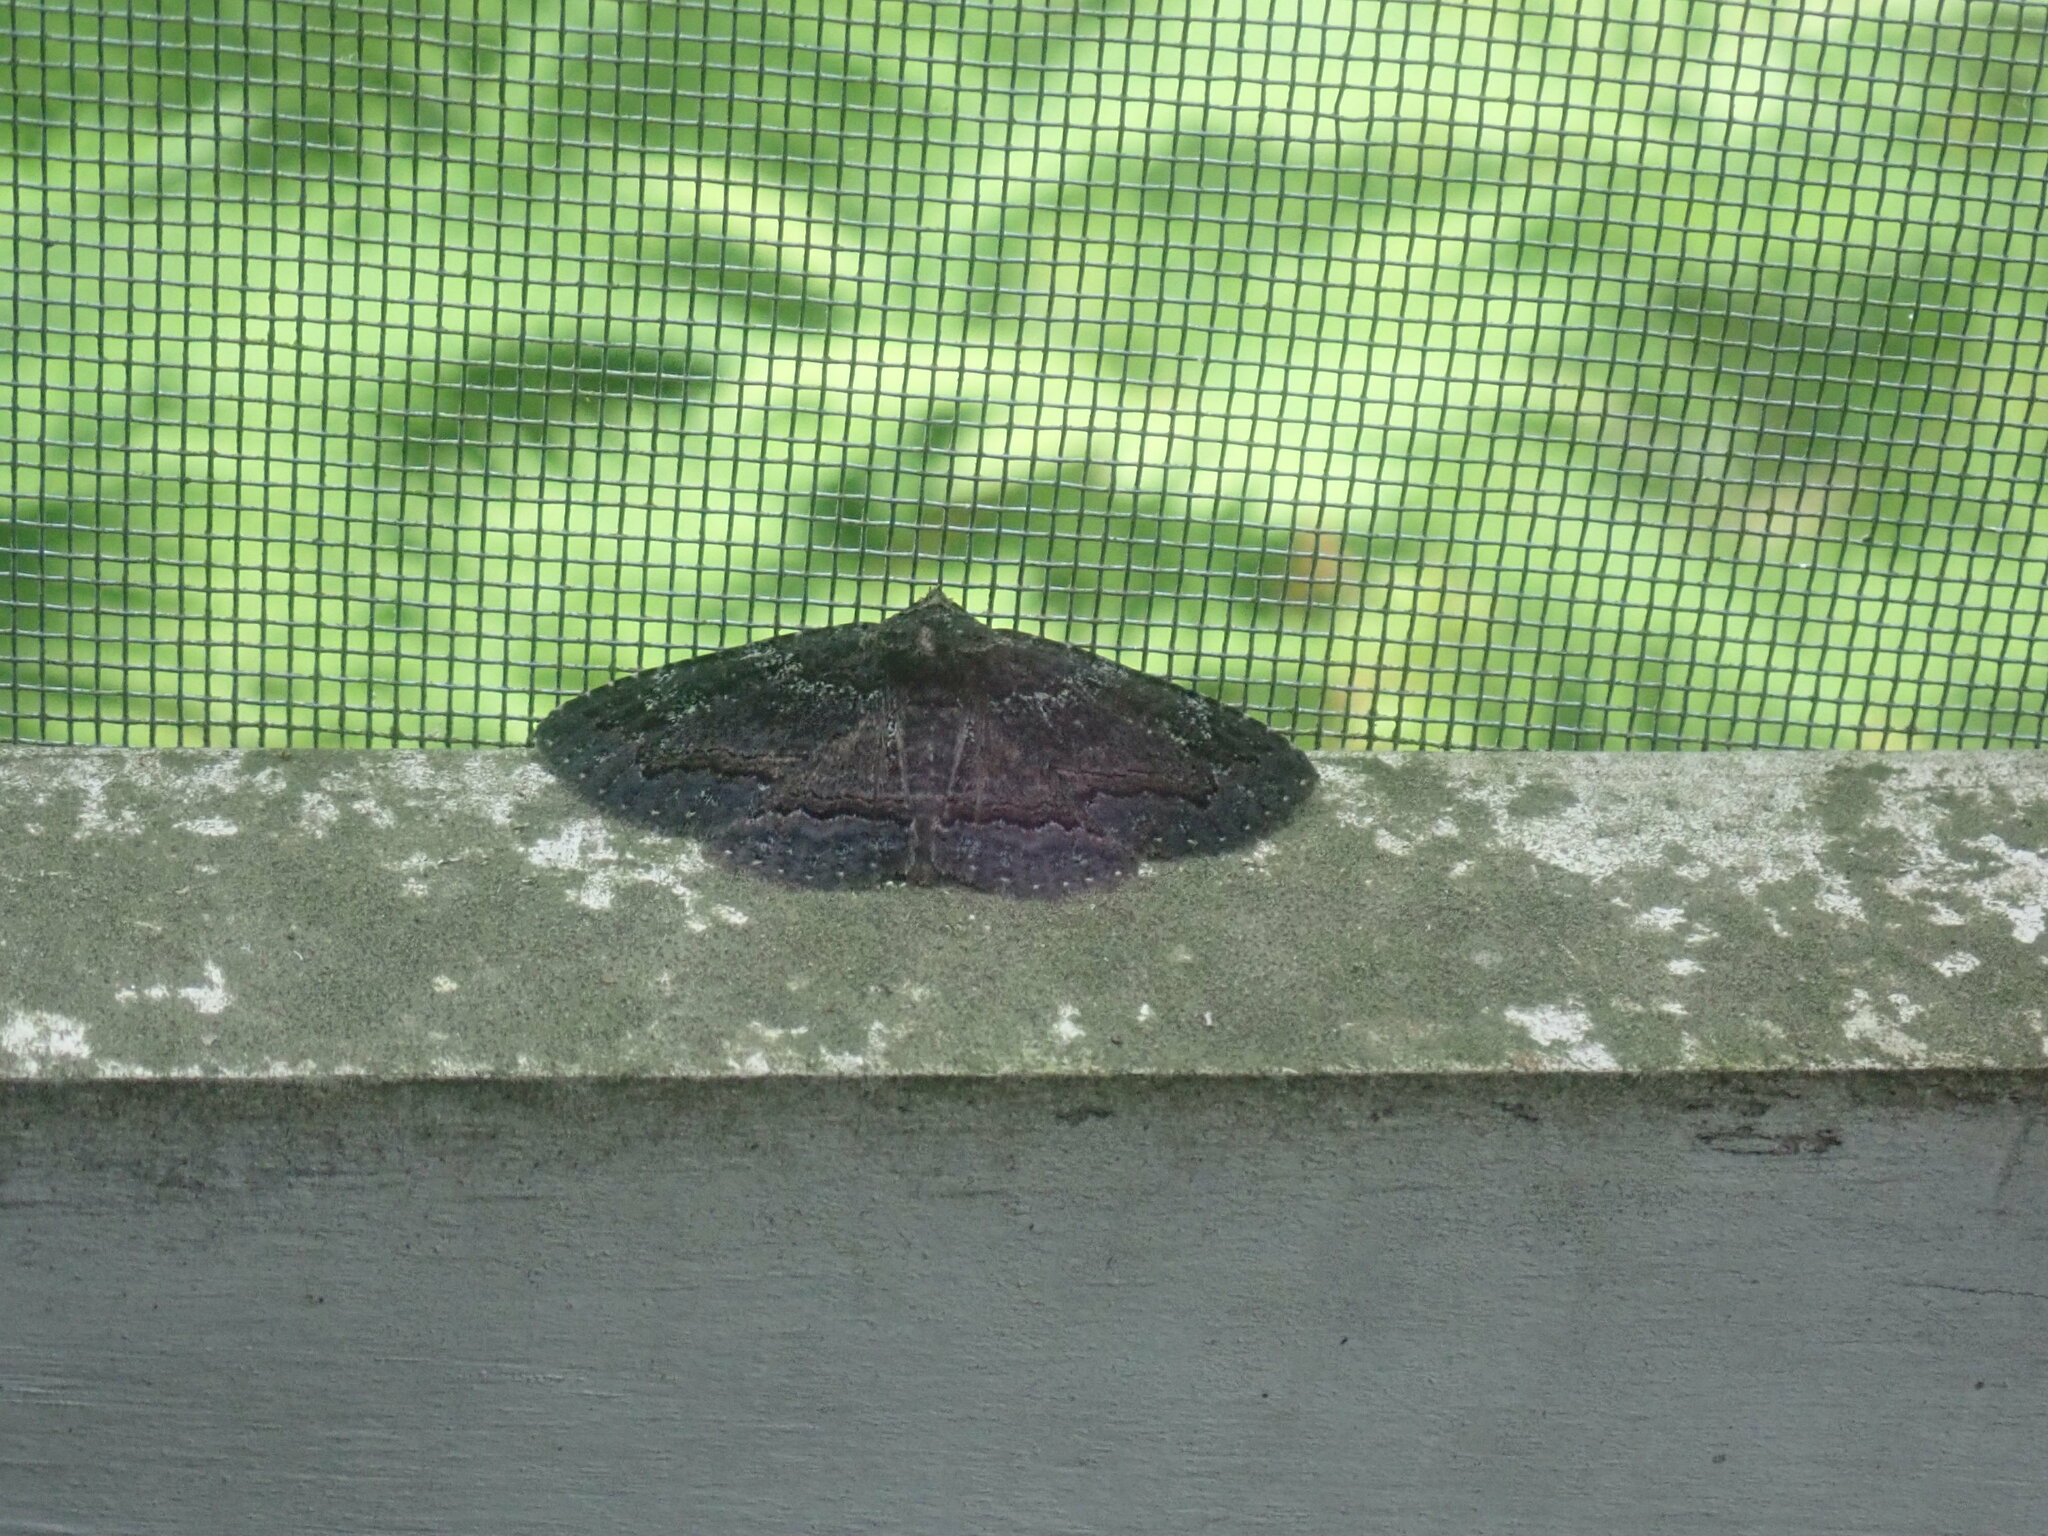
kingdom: Animalia
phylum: Arthropoda
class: Insecta
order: Lepidoptera
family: Erebidae
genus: Zale
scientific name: Zale aeruginosa
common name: Green-dusted zale moth
